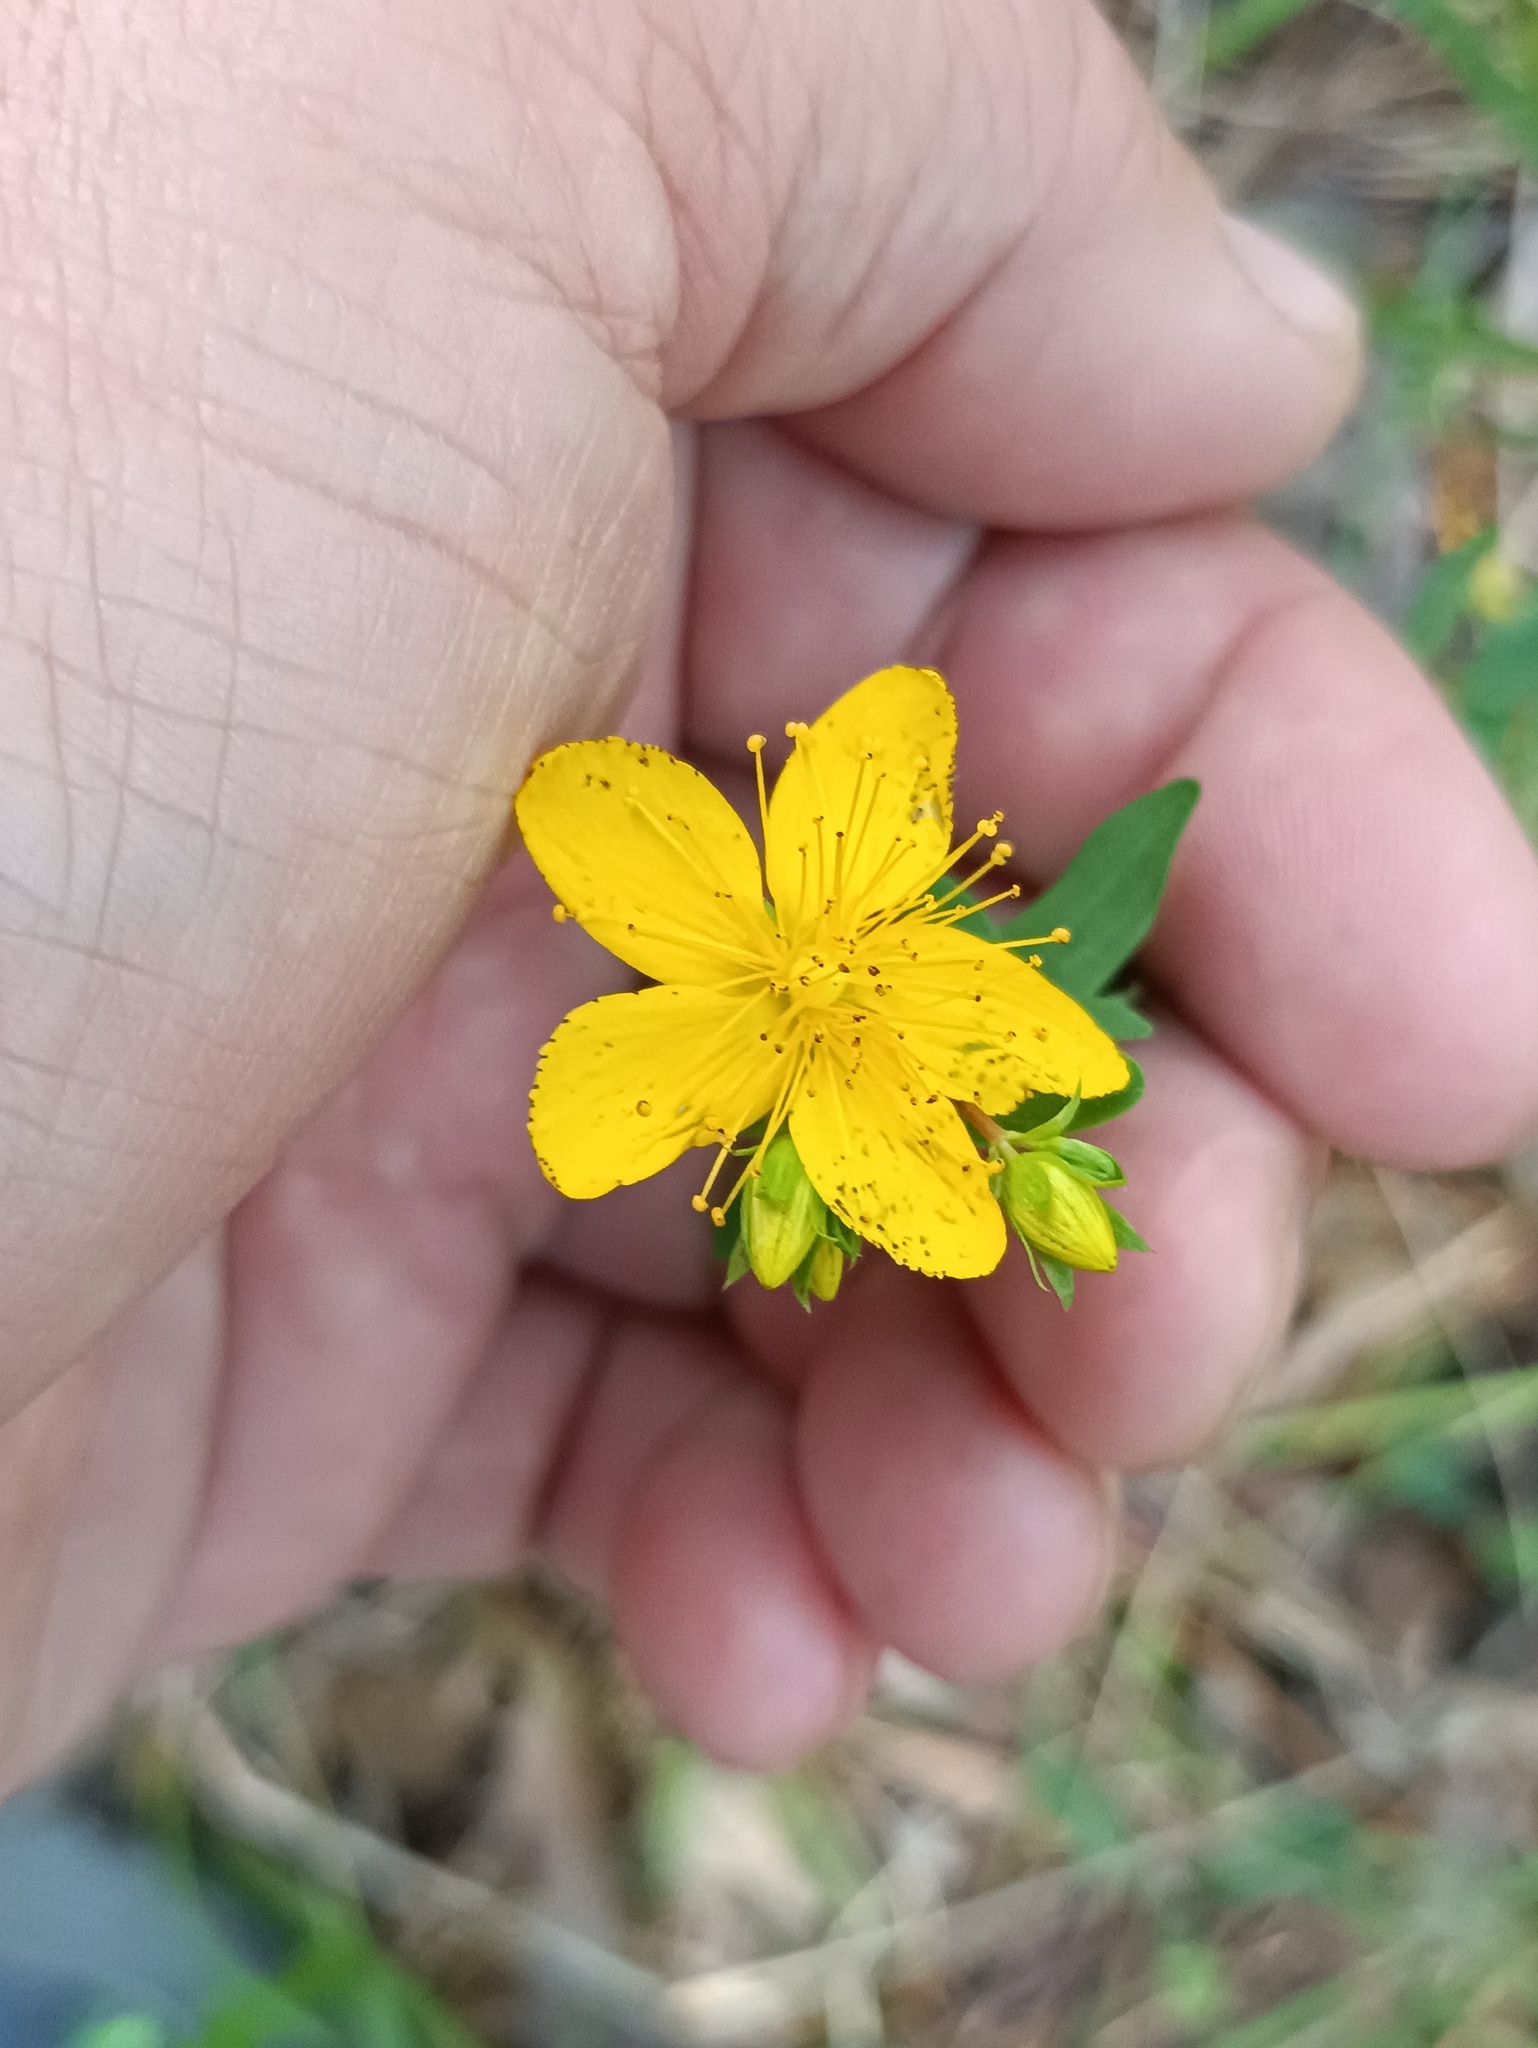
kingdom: Plantae
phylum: Tracheophyta
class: Magnoliopsida
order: Malpighiales
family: Hypericaceae
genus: Hypericum
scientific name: Hypericum perforatum
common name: Common st. johnswort
